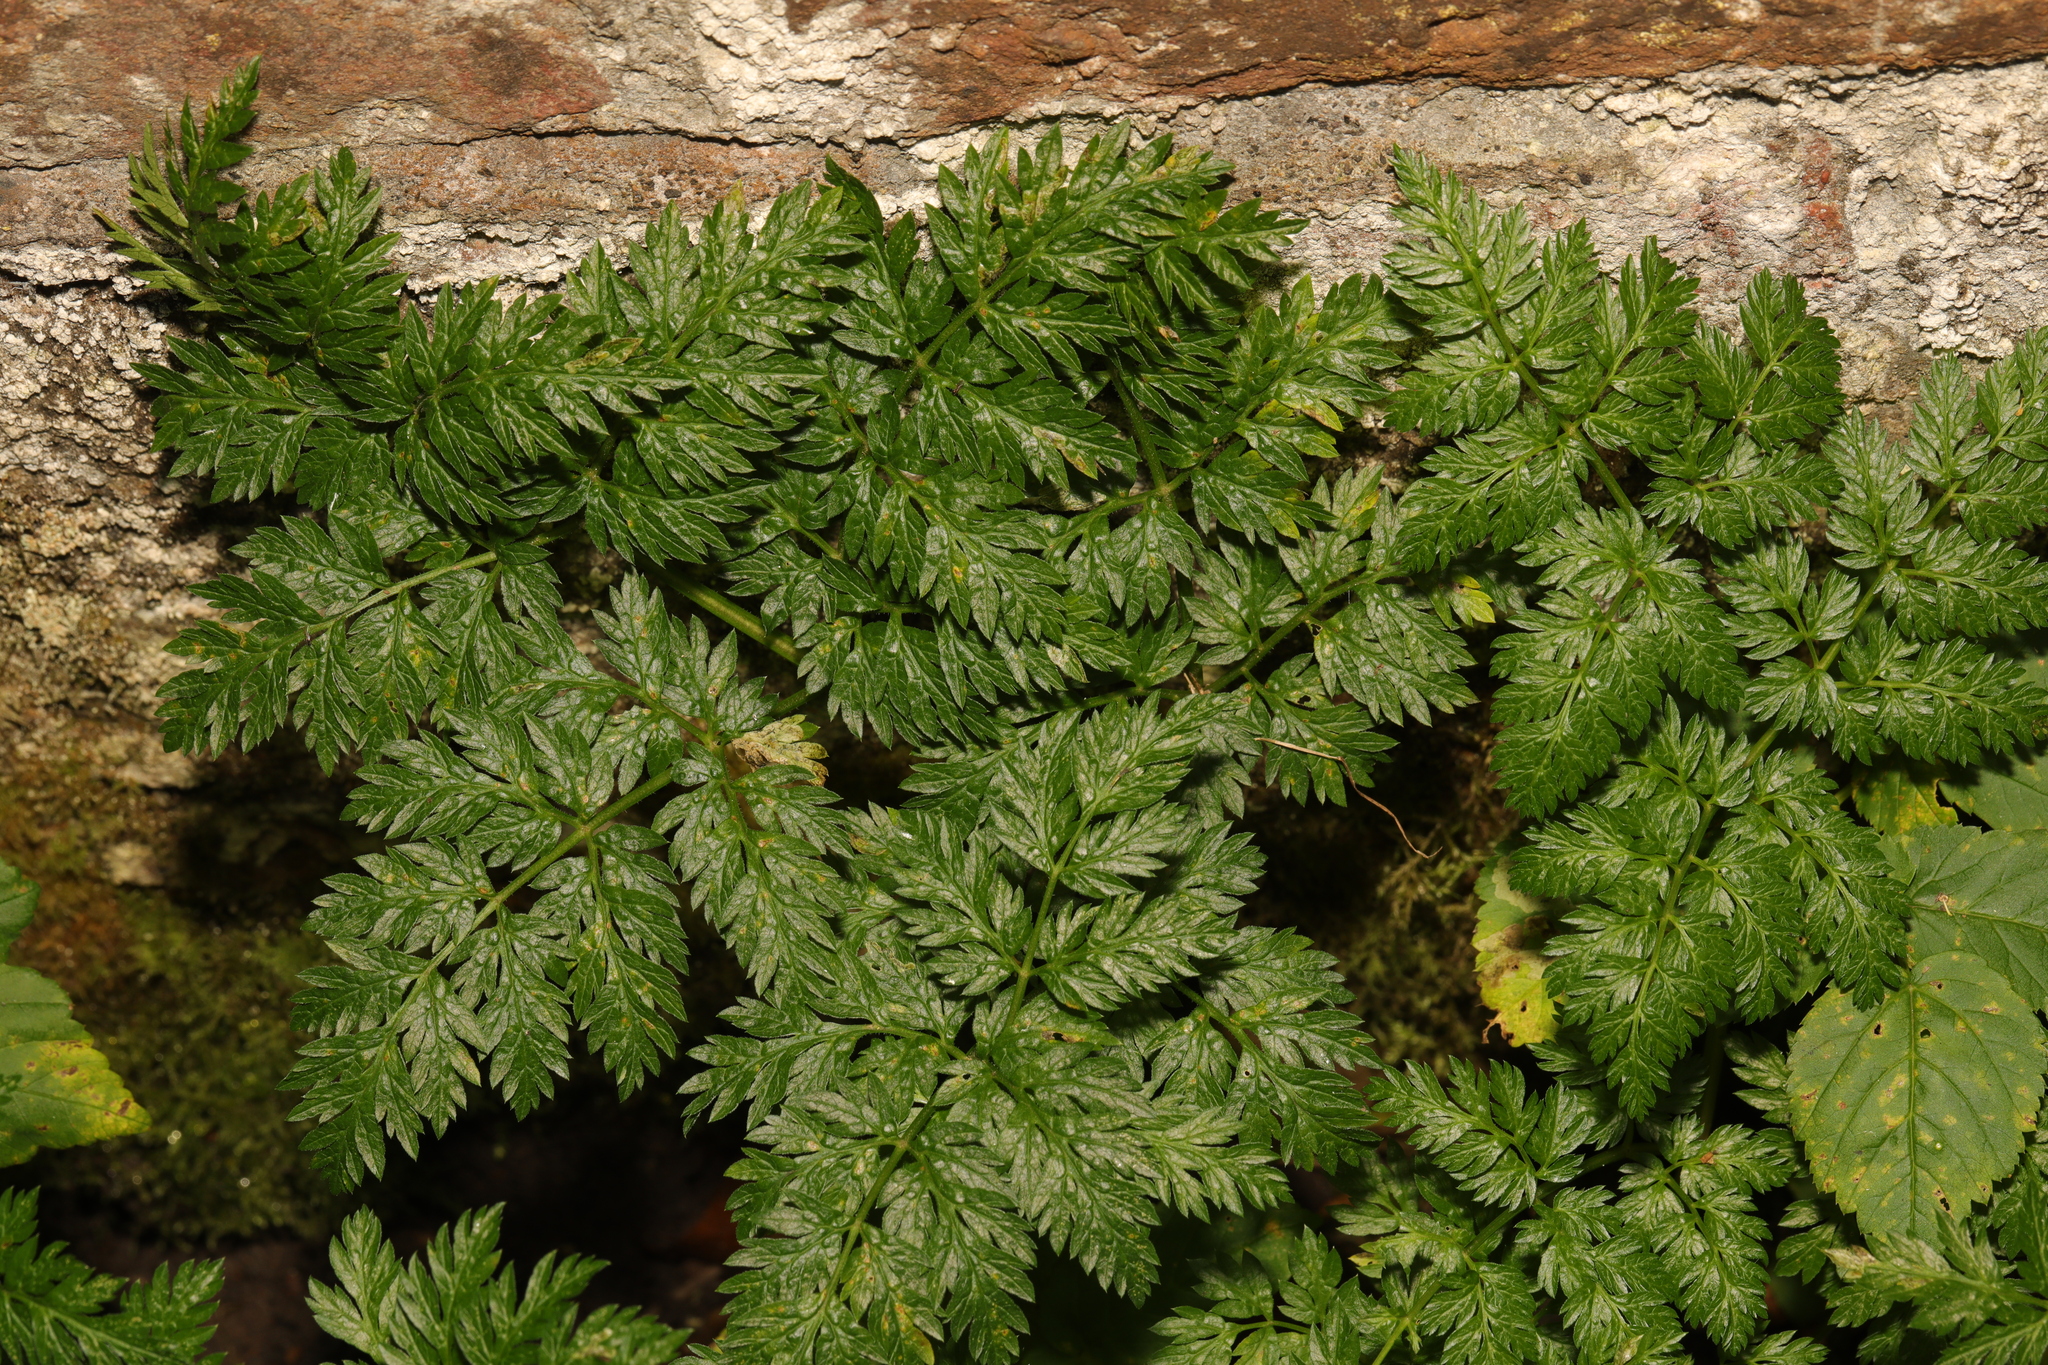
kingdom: Plantae
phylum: Tracheophyta
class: Magnoliopsida
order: Apiales
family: Apiaceae
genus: Anthriscus
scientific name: Anthriscus sylvestris
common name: Cow parsley
